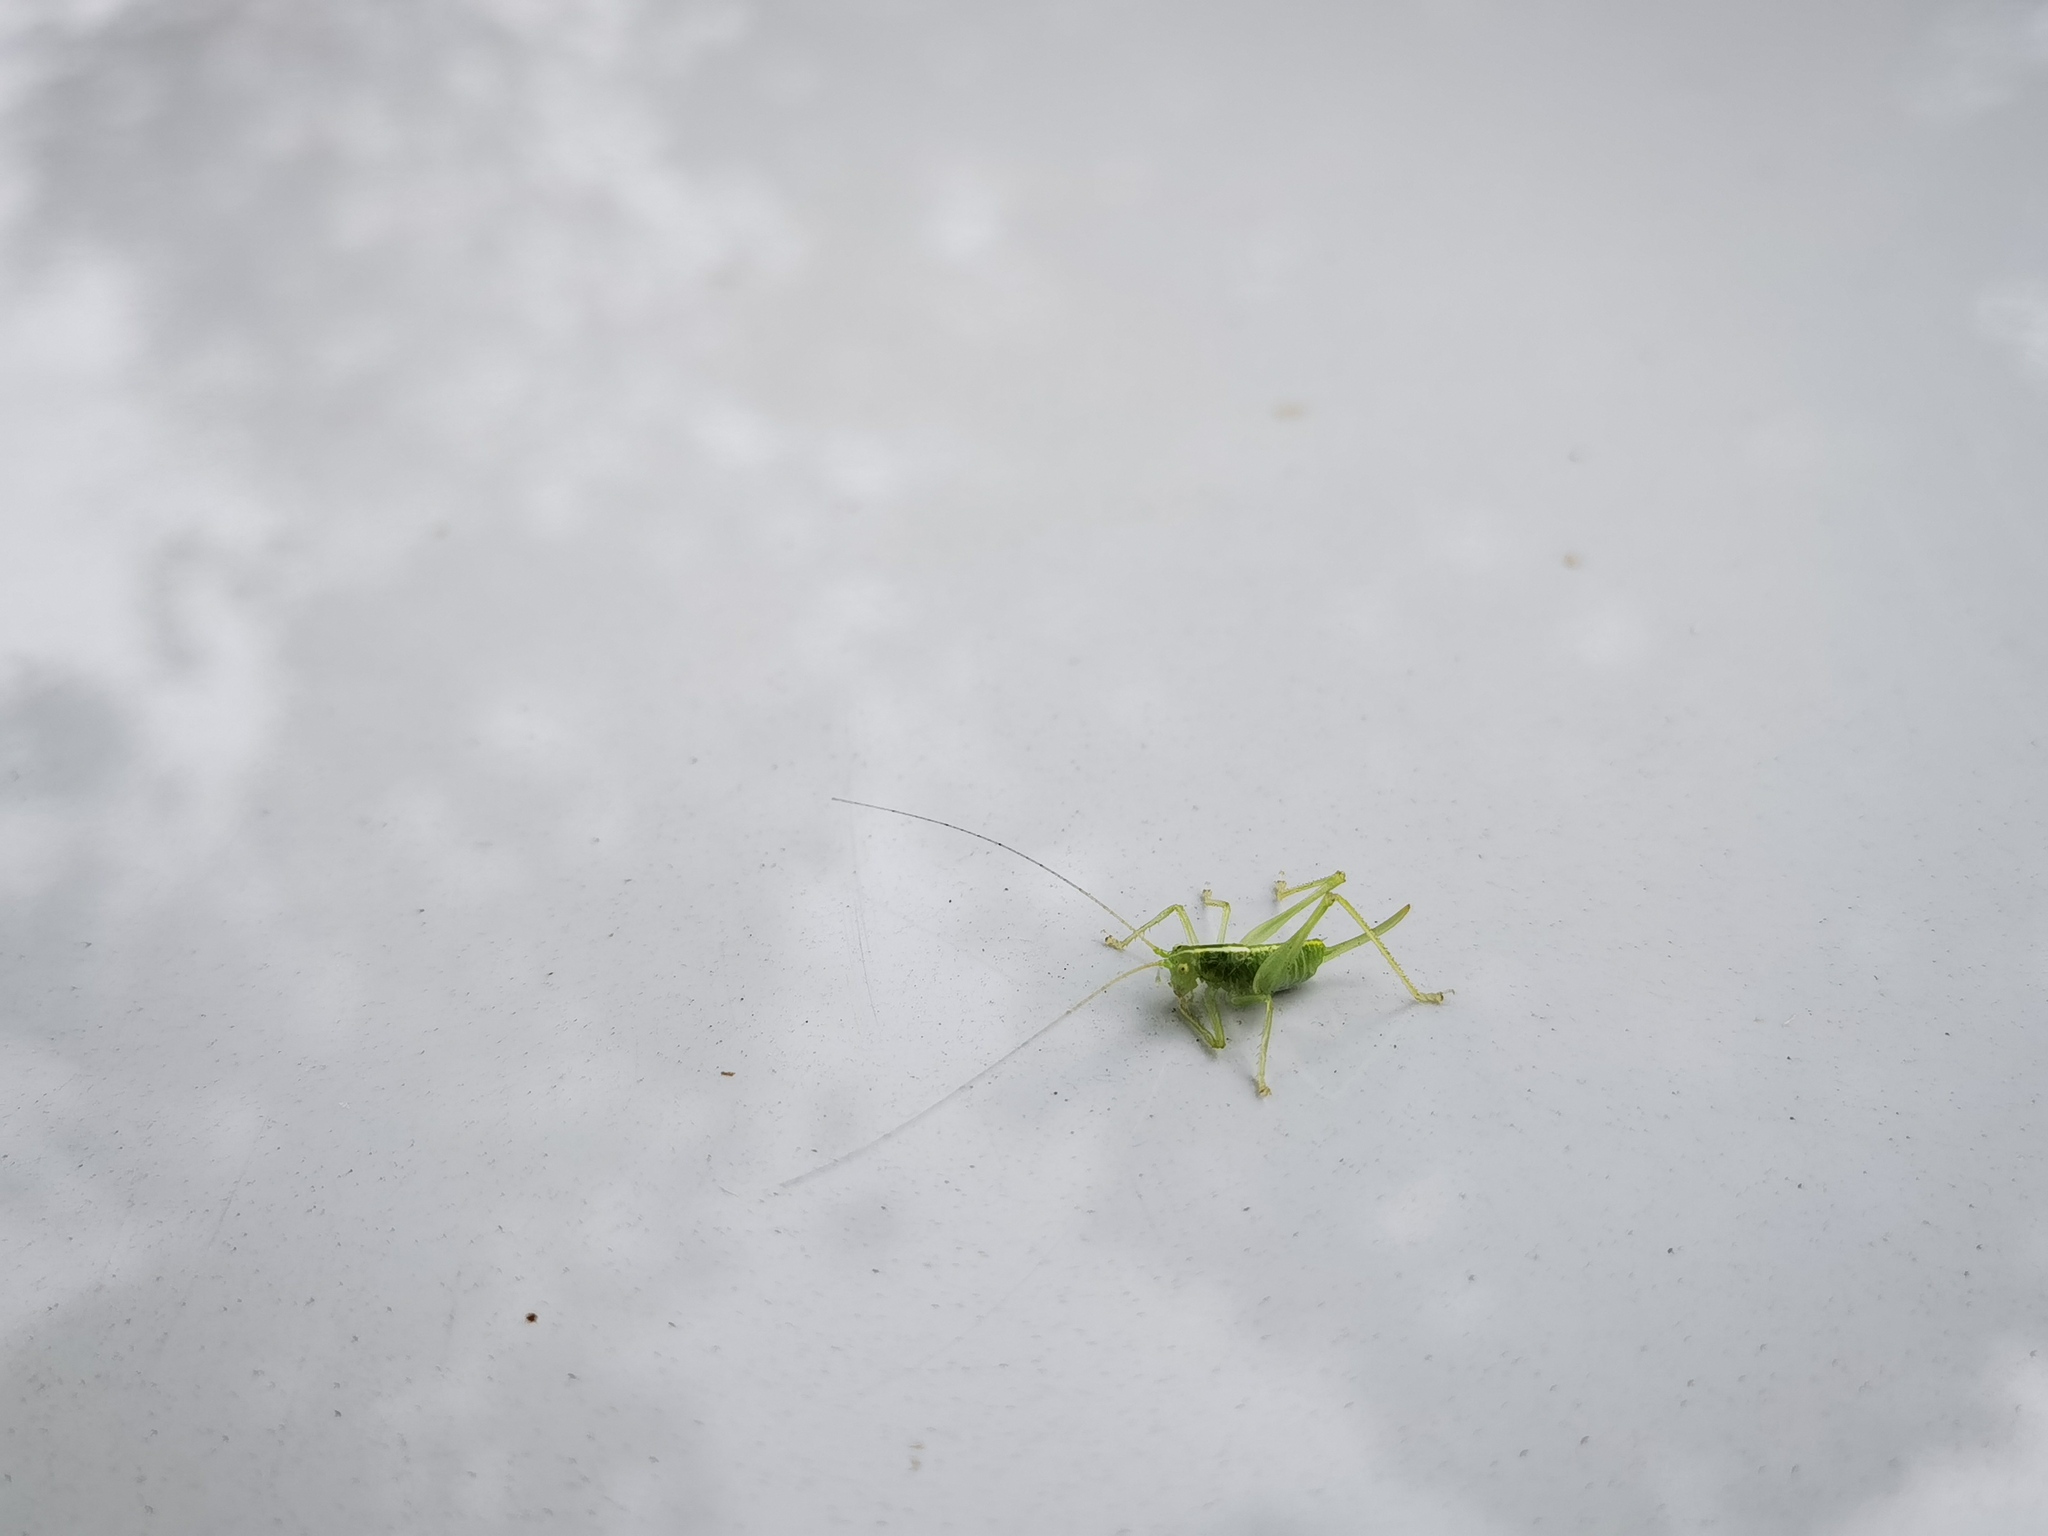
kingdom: Animalia
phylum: Arthropoda
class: Insecta
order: Orthoptera
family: Tettigoniidae
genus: Meconema
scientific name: Meconema meridionale
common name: Southern oak bush-cricket
